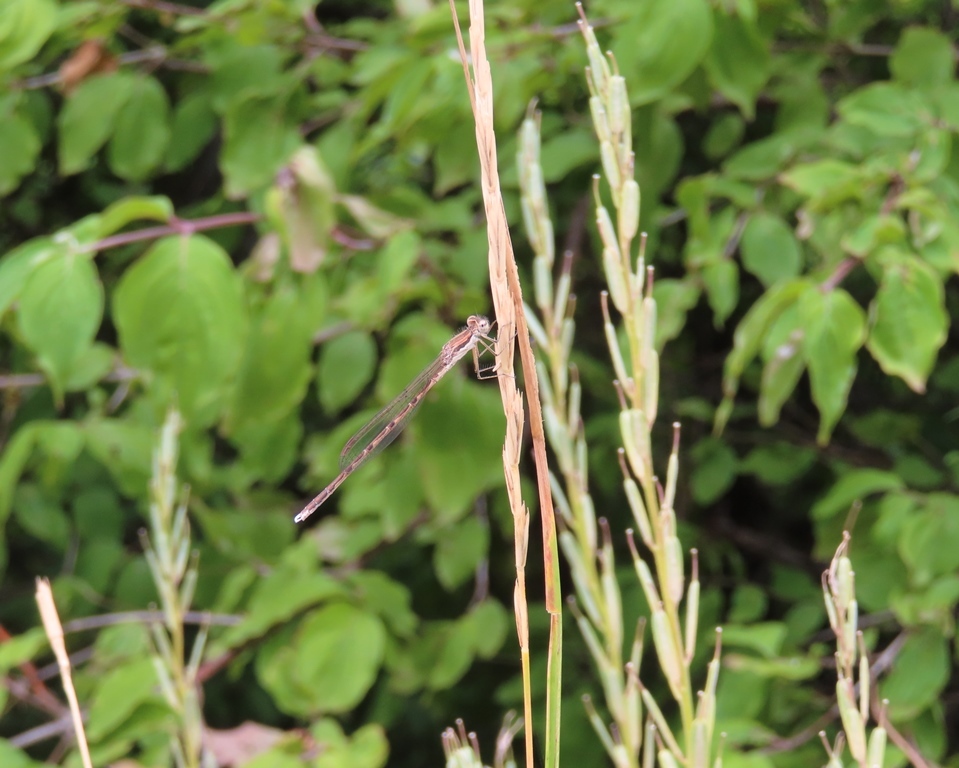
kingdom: Animalia
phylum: Arthropoda
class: Insecta
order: Odonata
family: Lestidae
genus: Sympecma
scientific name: Sympecma fusca
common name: Common winter damsel
